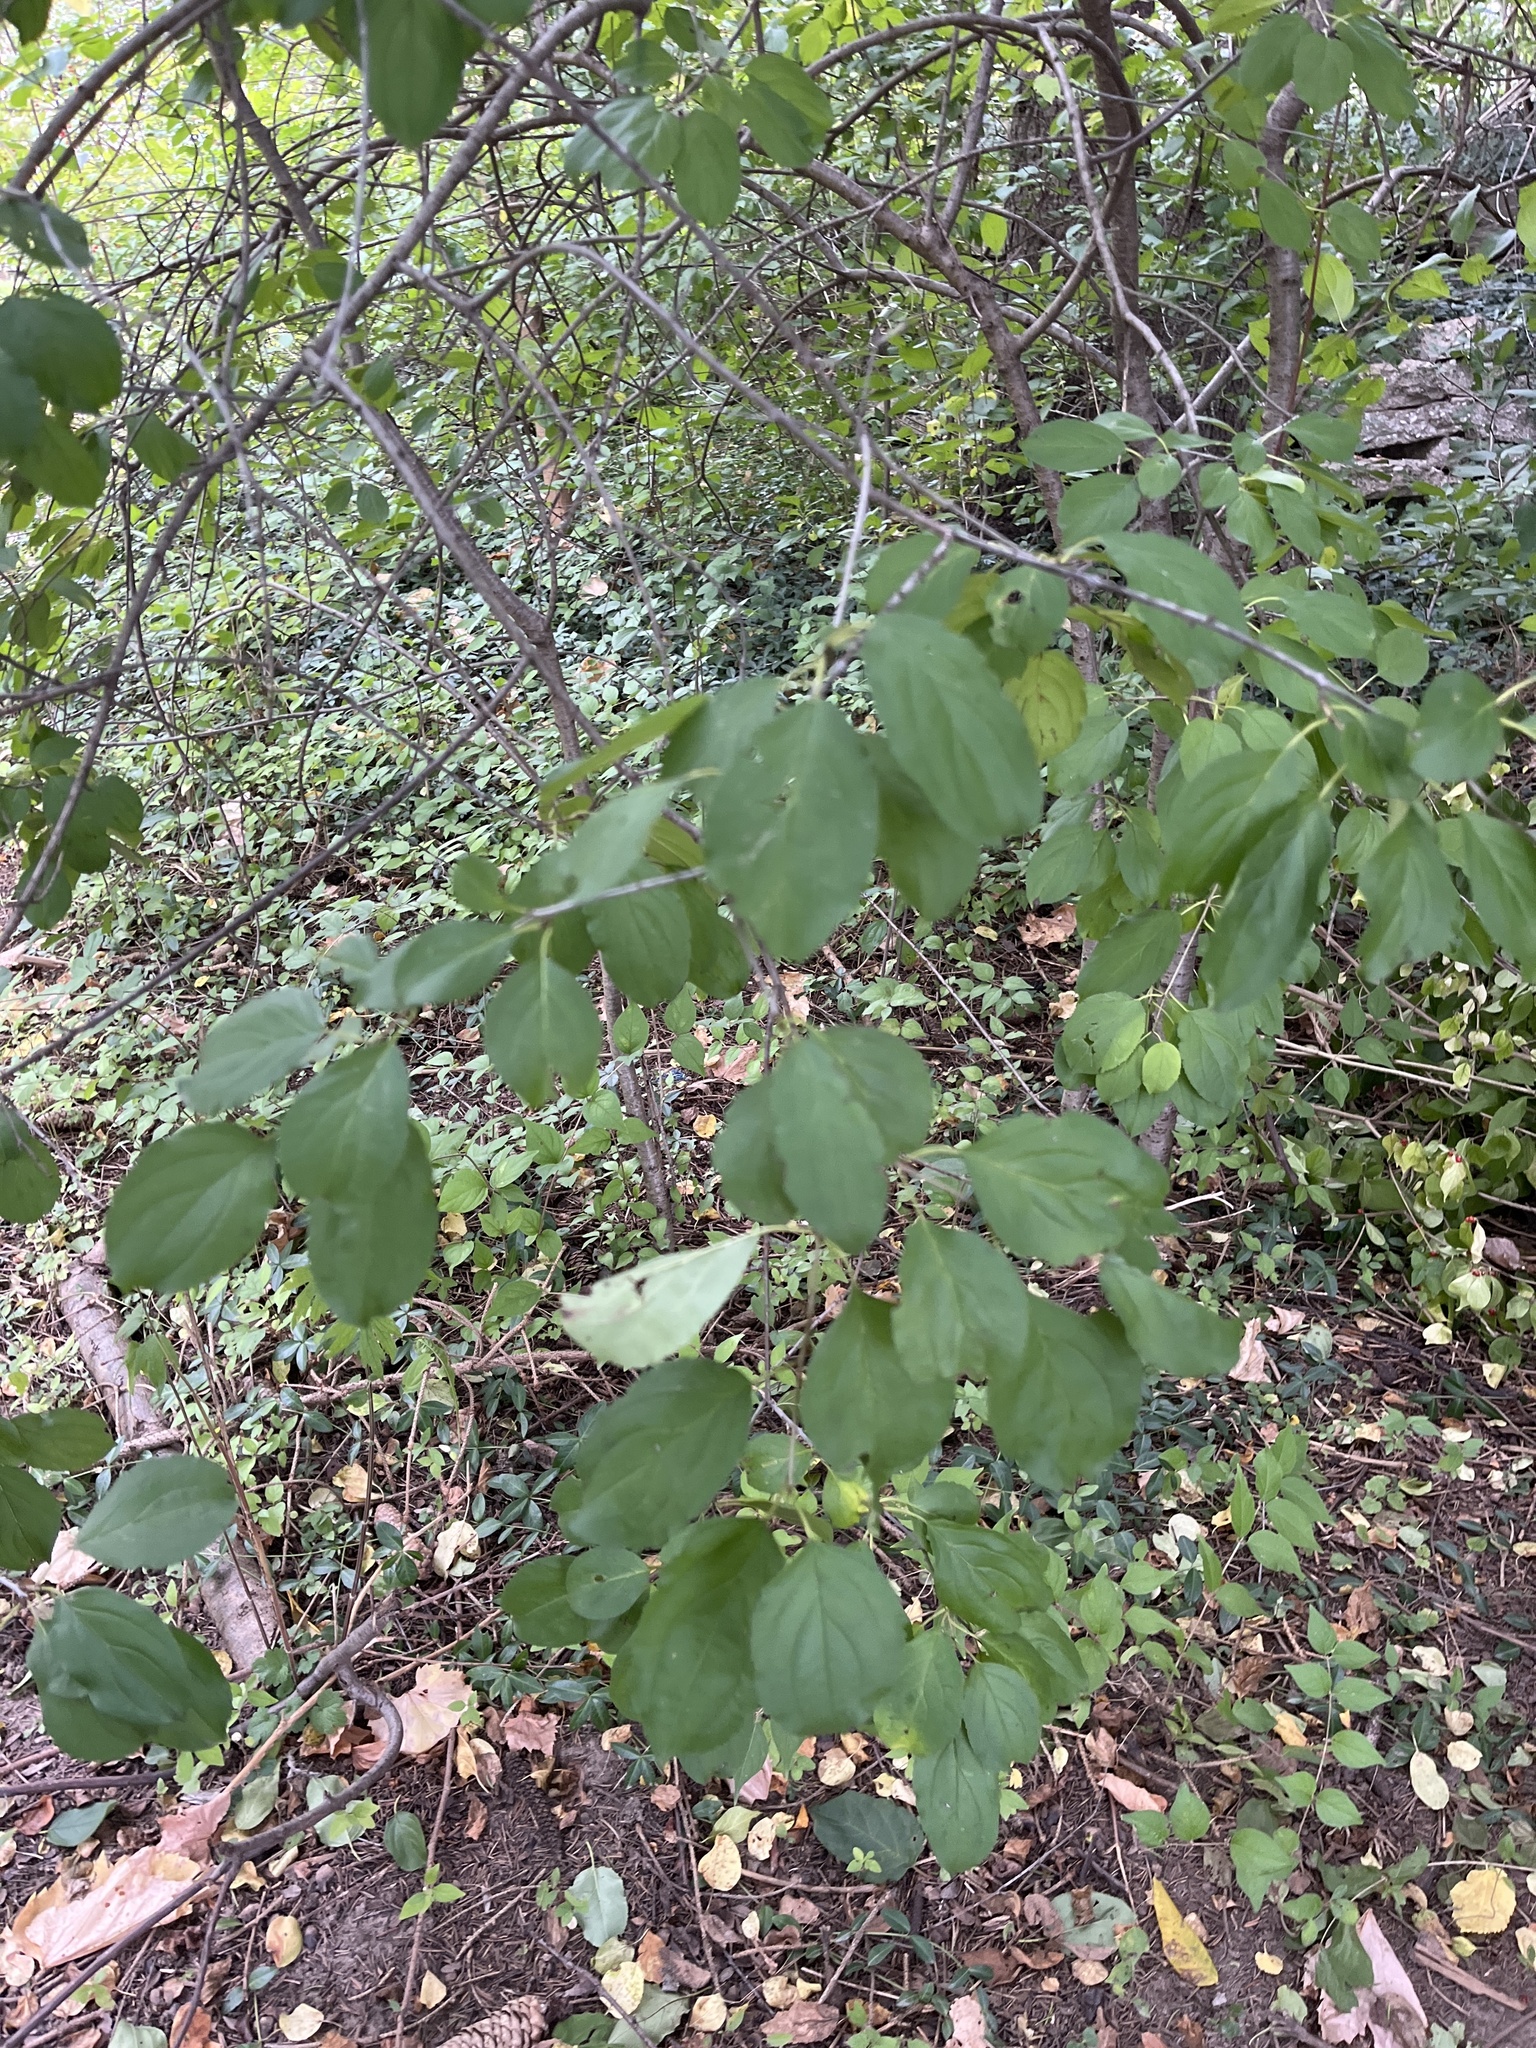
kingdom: Plantae
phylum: Tracheophyta
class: Magnoliopsida
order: Rosales
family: Rhamnaceae
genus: Rhamnus
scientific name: Rhamnus cathartica
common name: Common buckthorn
